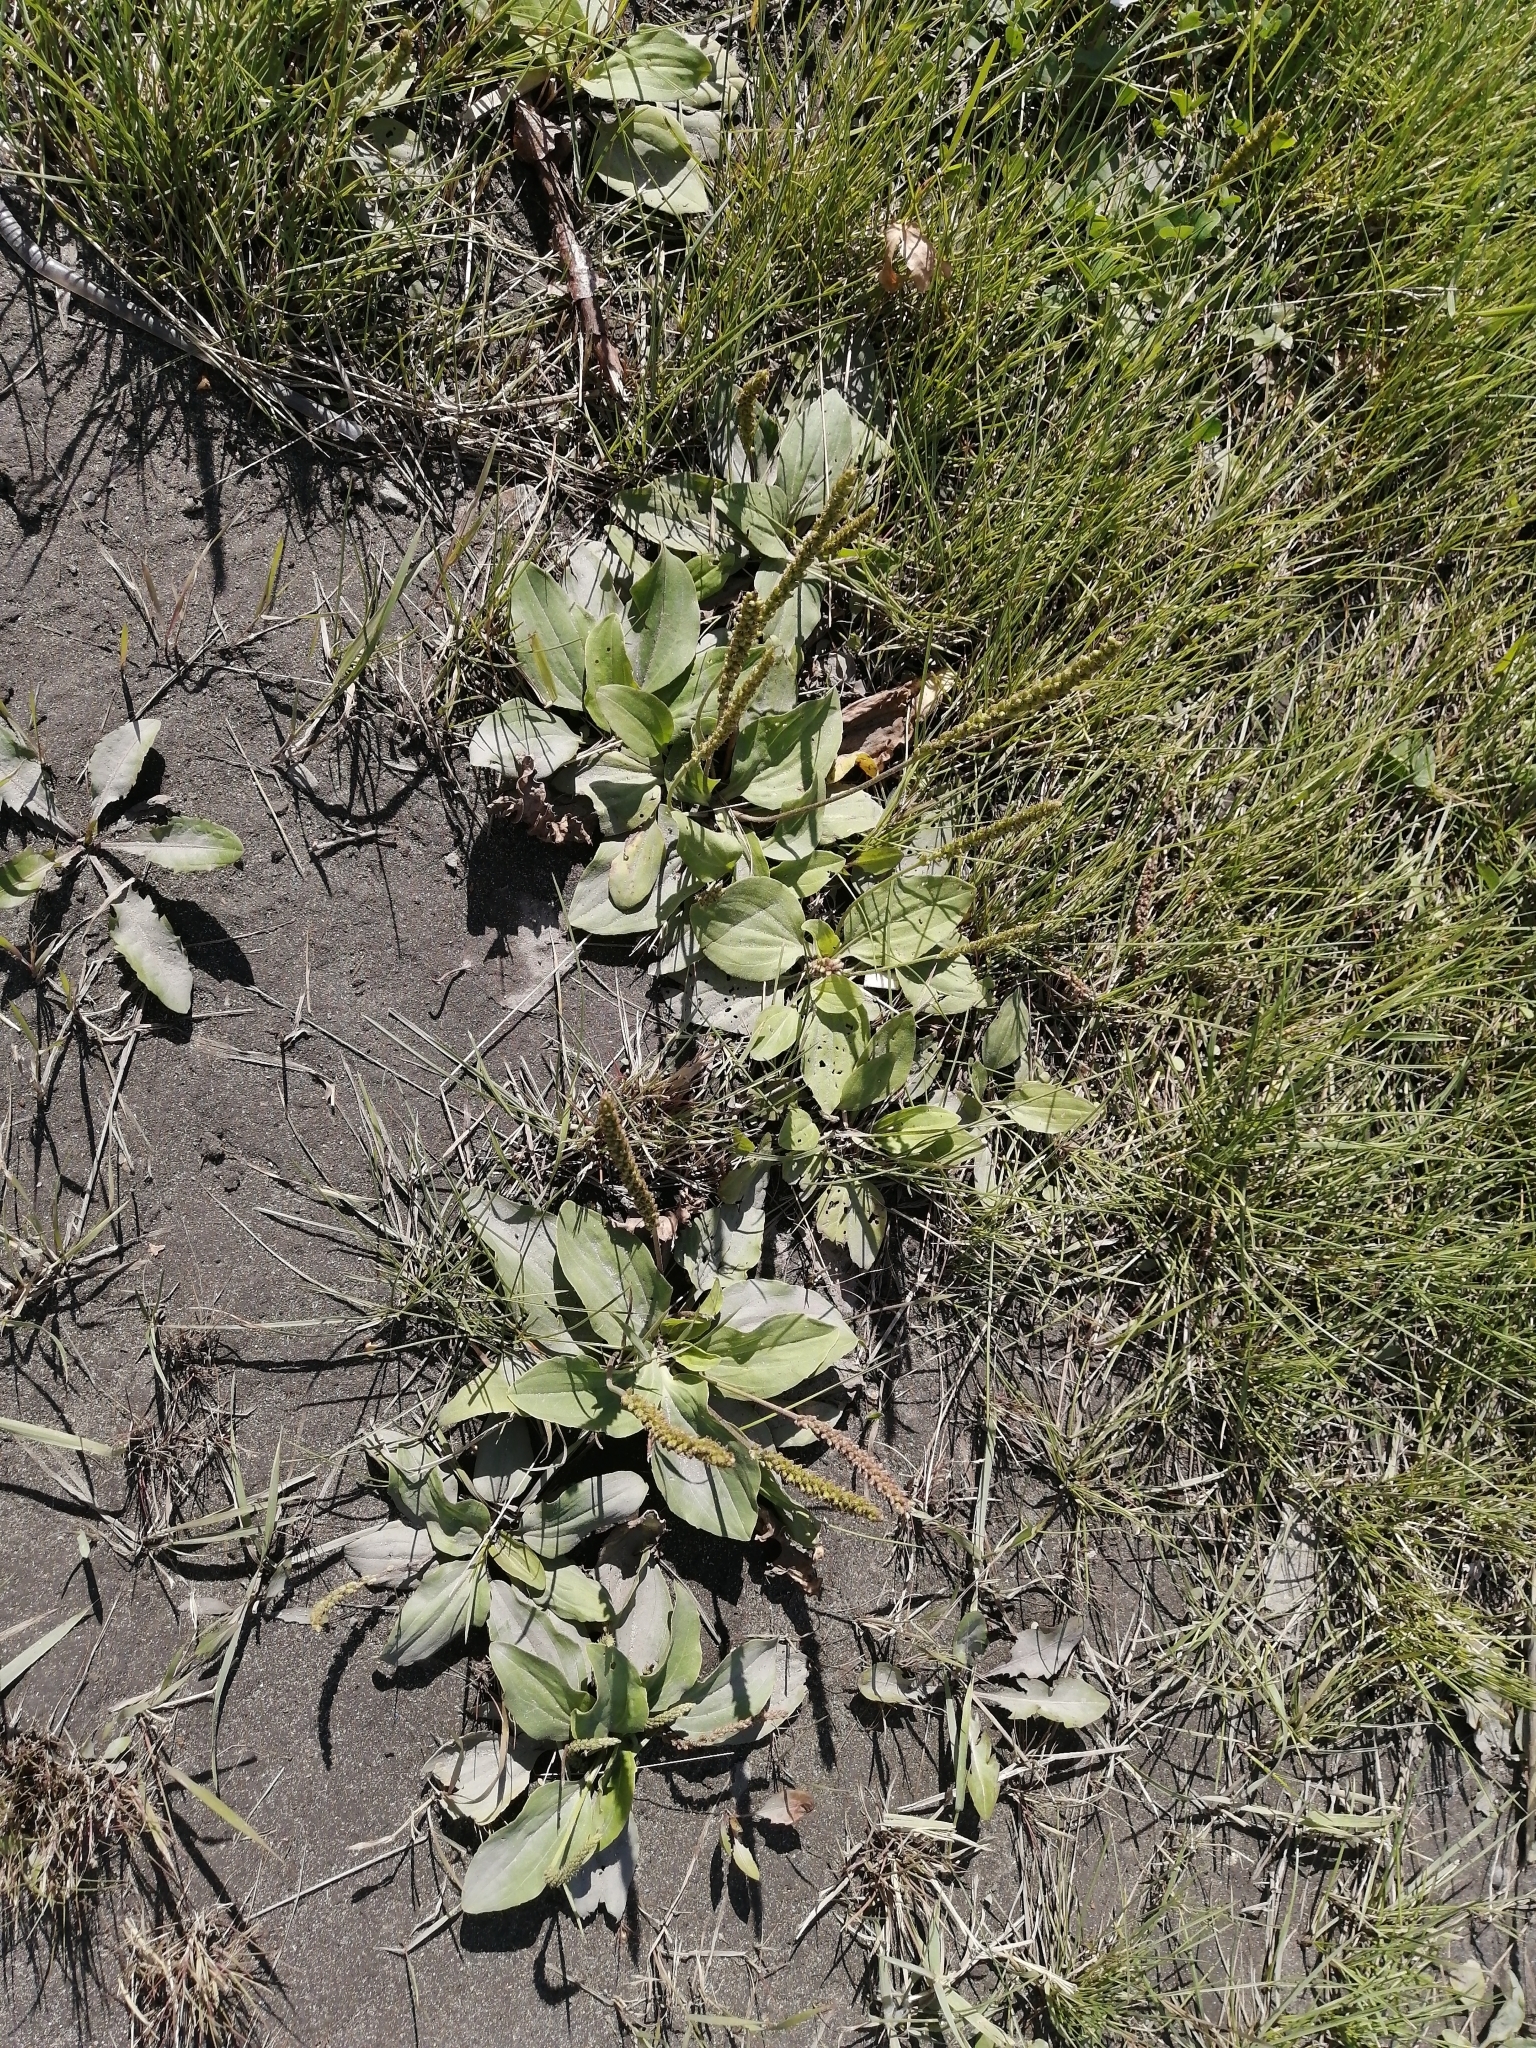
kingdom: Plantae
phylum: Tracheophyta
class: Magnoliopsida
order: Lamiales
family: Plantaginaceae
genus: Plantago
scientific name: Plantago major
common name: Common plantain
